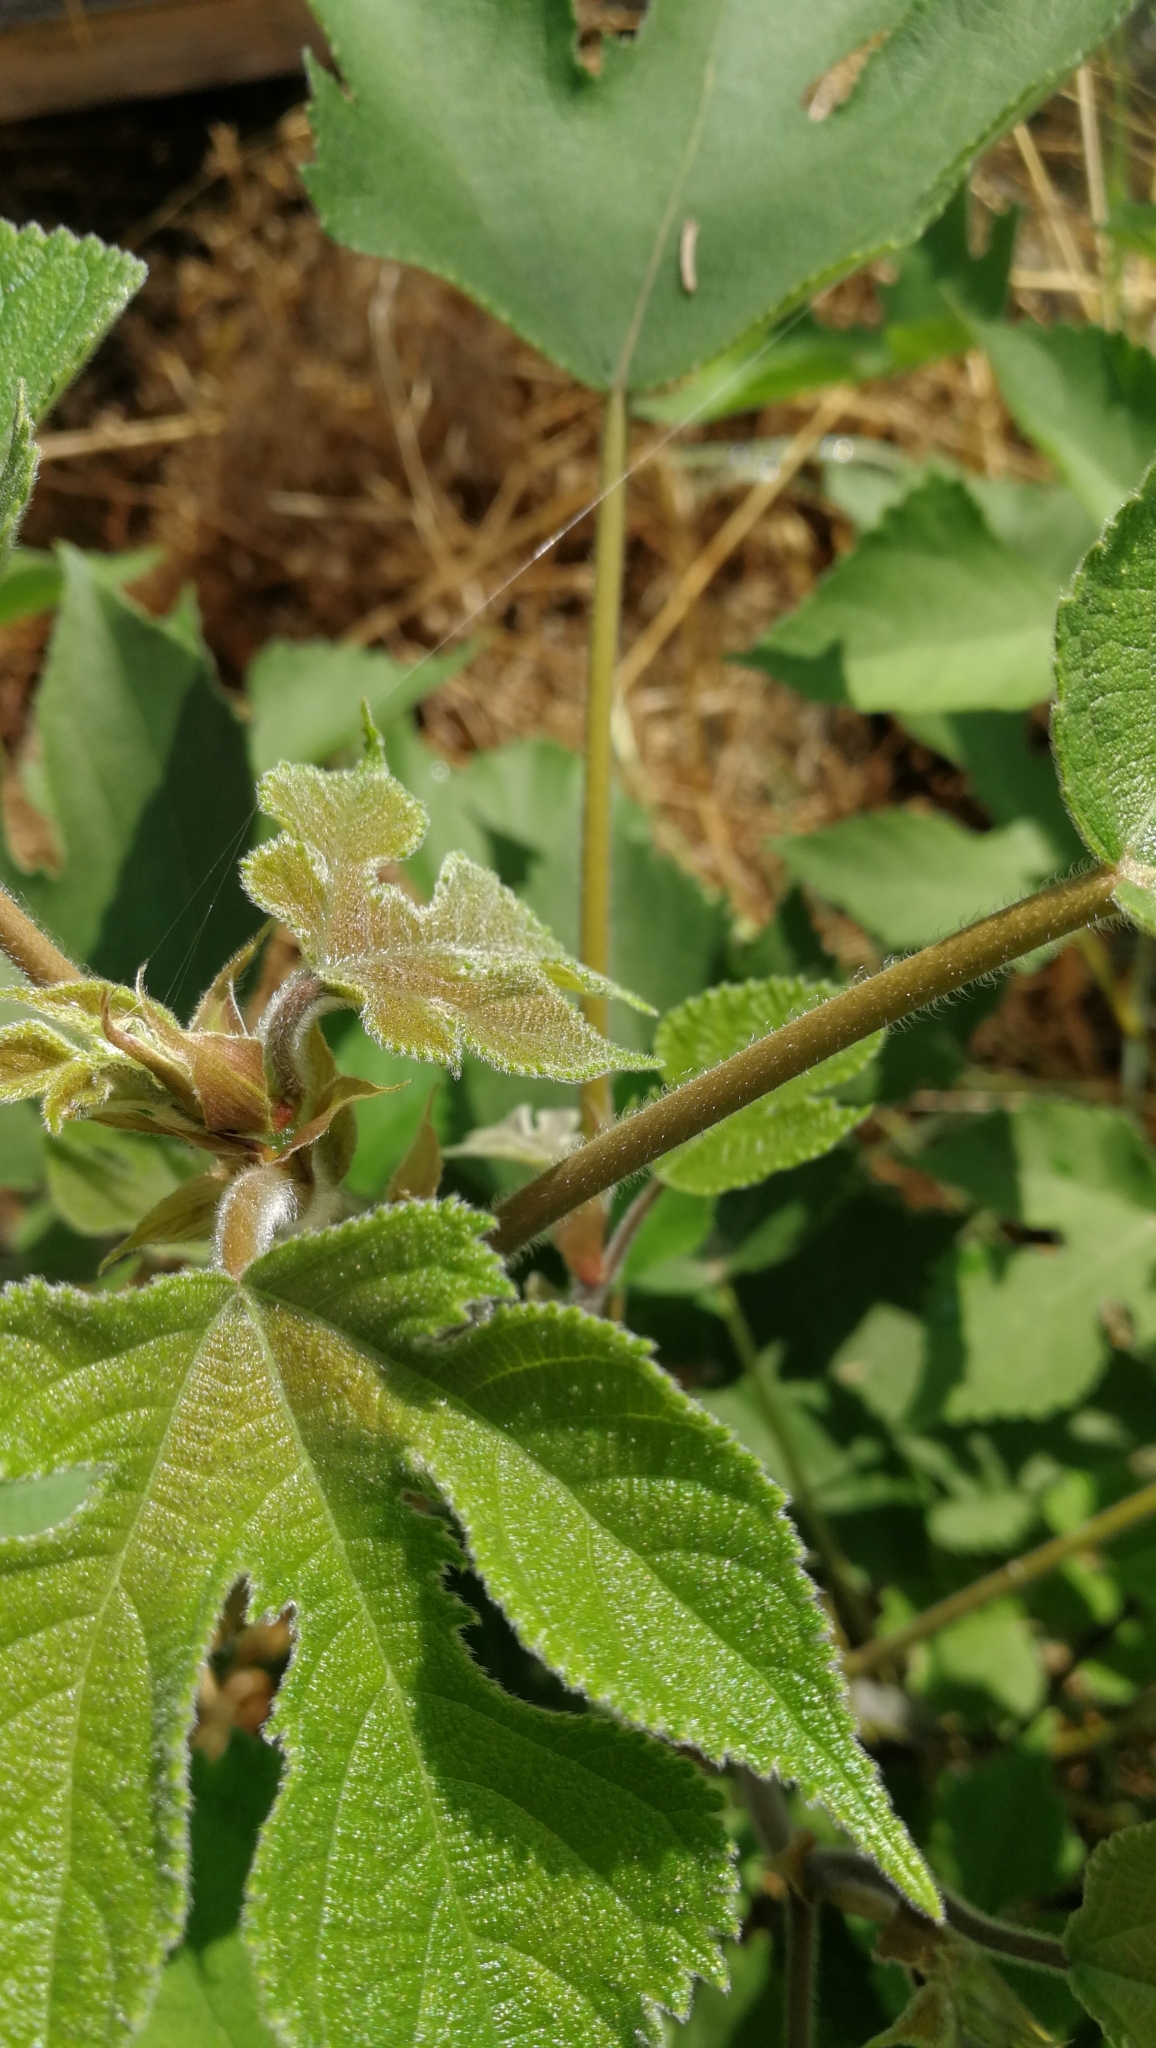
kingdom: Plantae
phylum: Tracheophyta
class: Magnoliopsida
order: Rosales
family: Moraceae
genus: Broussonetia
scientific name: Broussonetia papyrifera
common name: Paper mulberry
